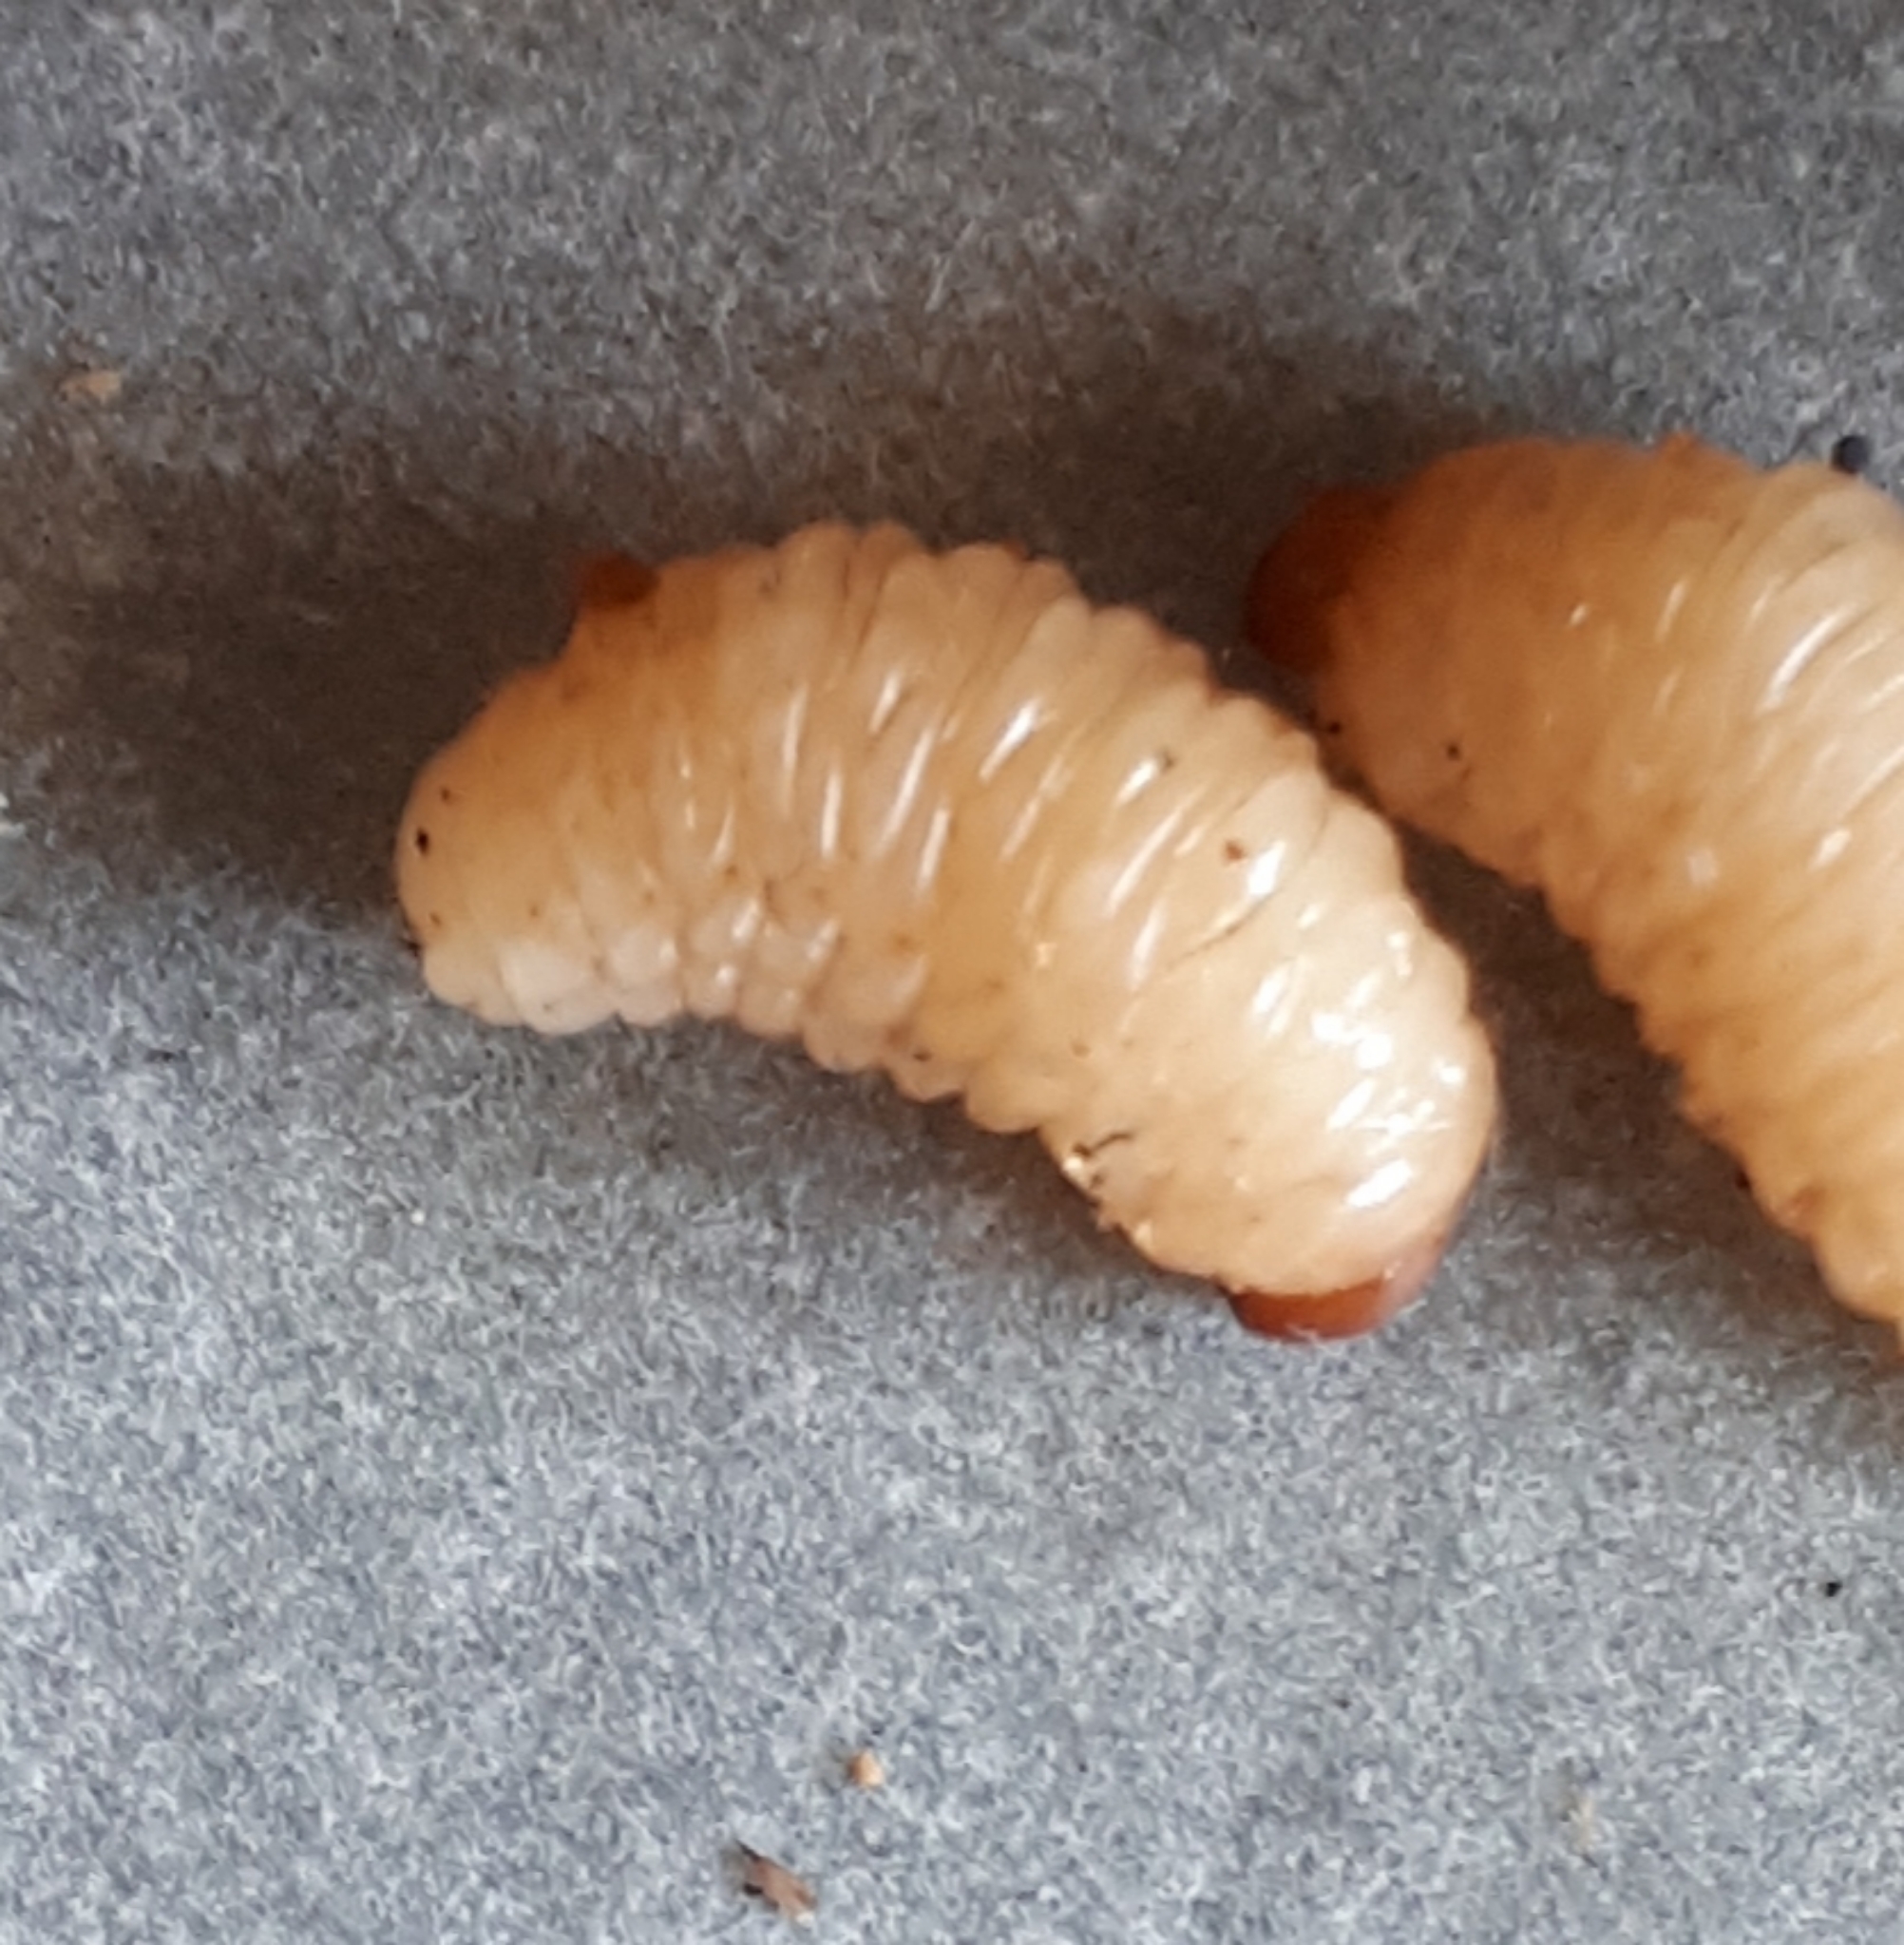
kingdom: Animalia
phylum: Arthropoda
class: Insecta
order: Coleoptera
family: Curculionidae
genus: Curculio
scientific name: Curculio elephas
